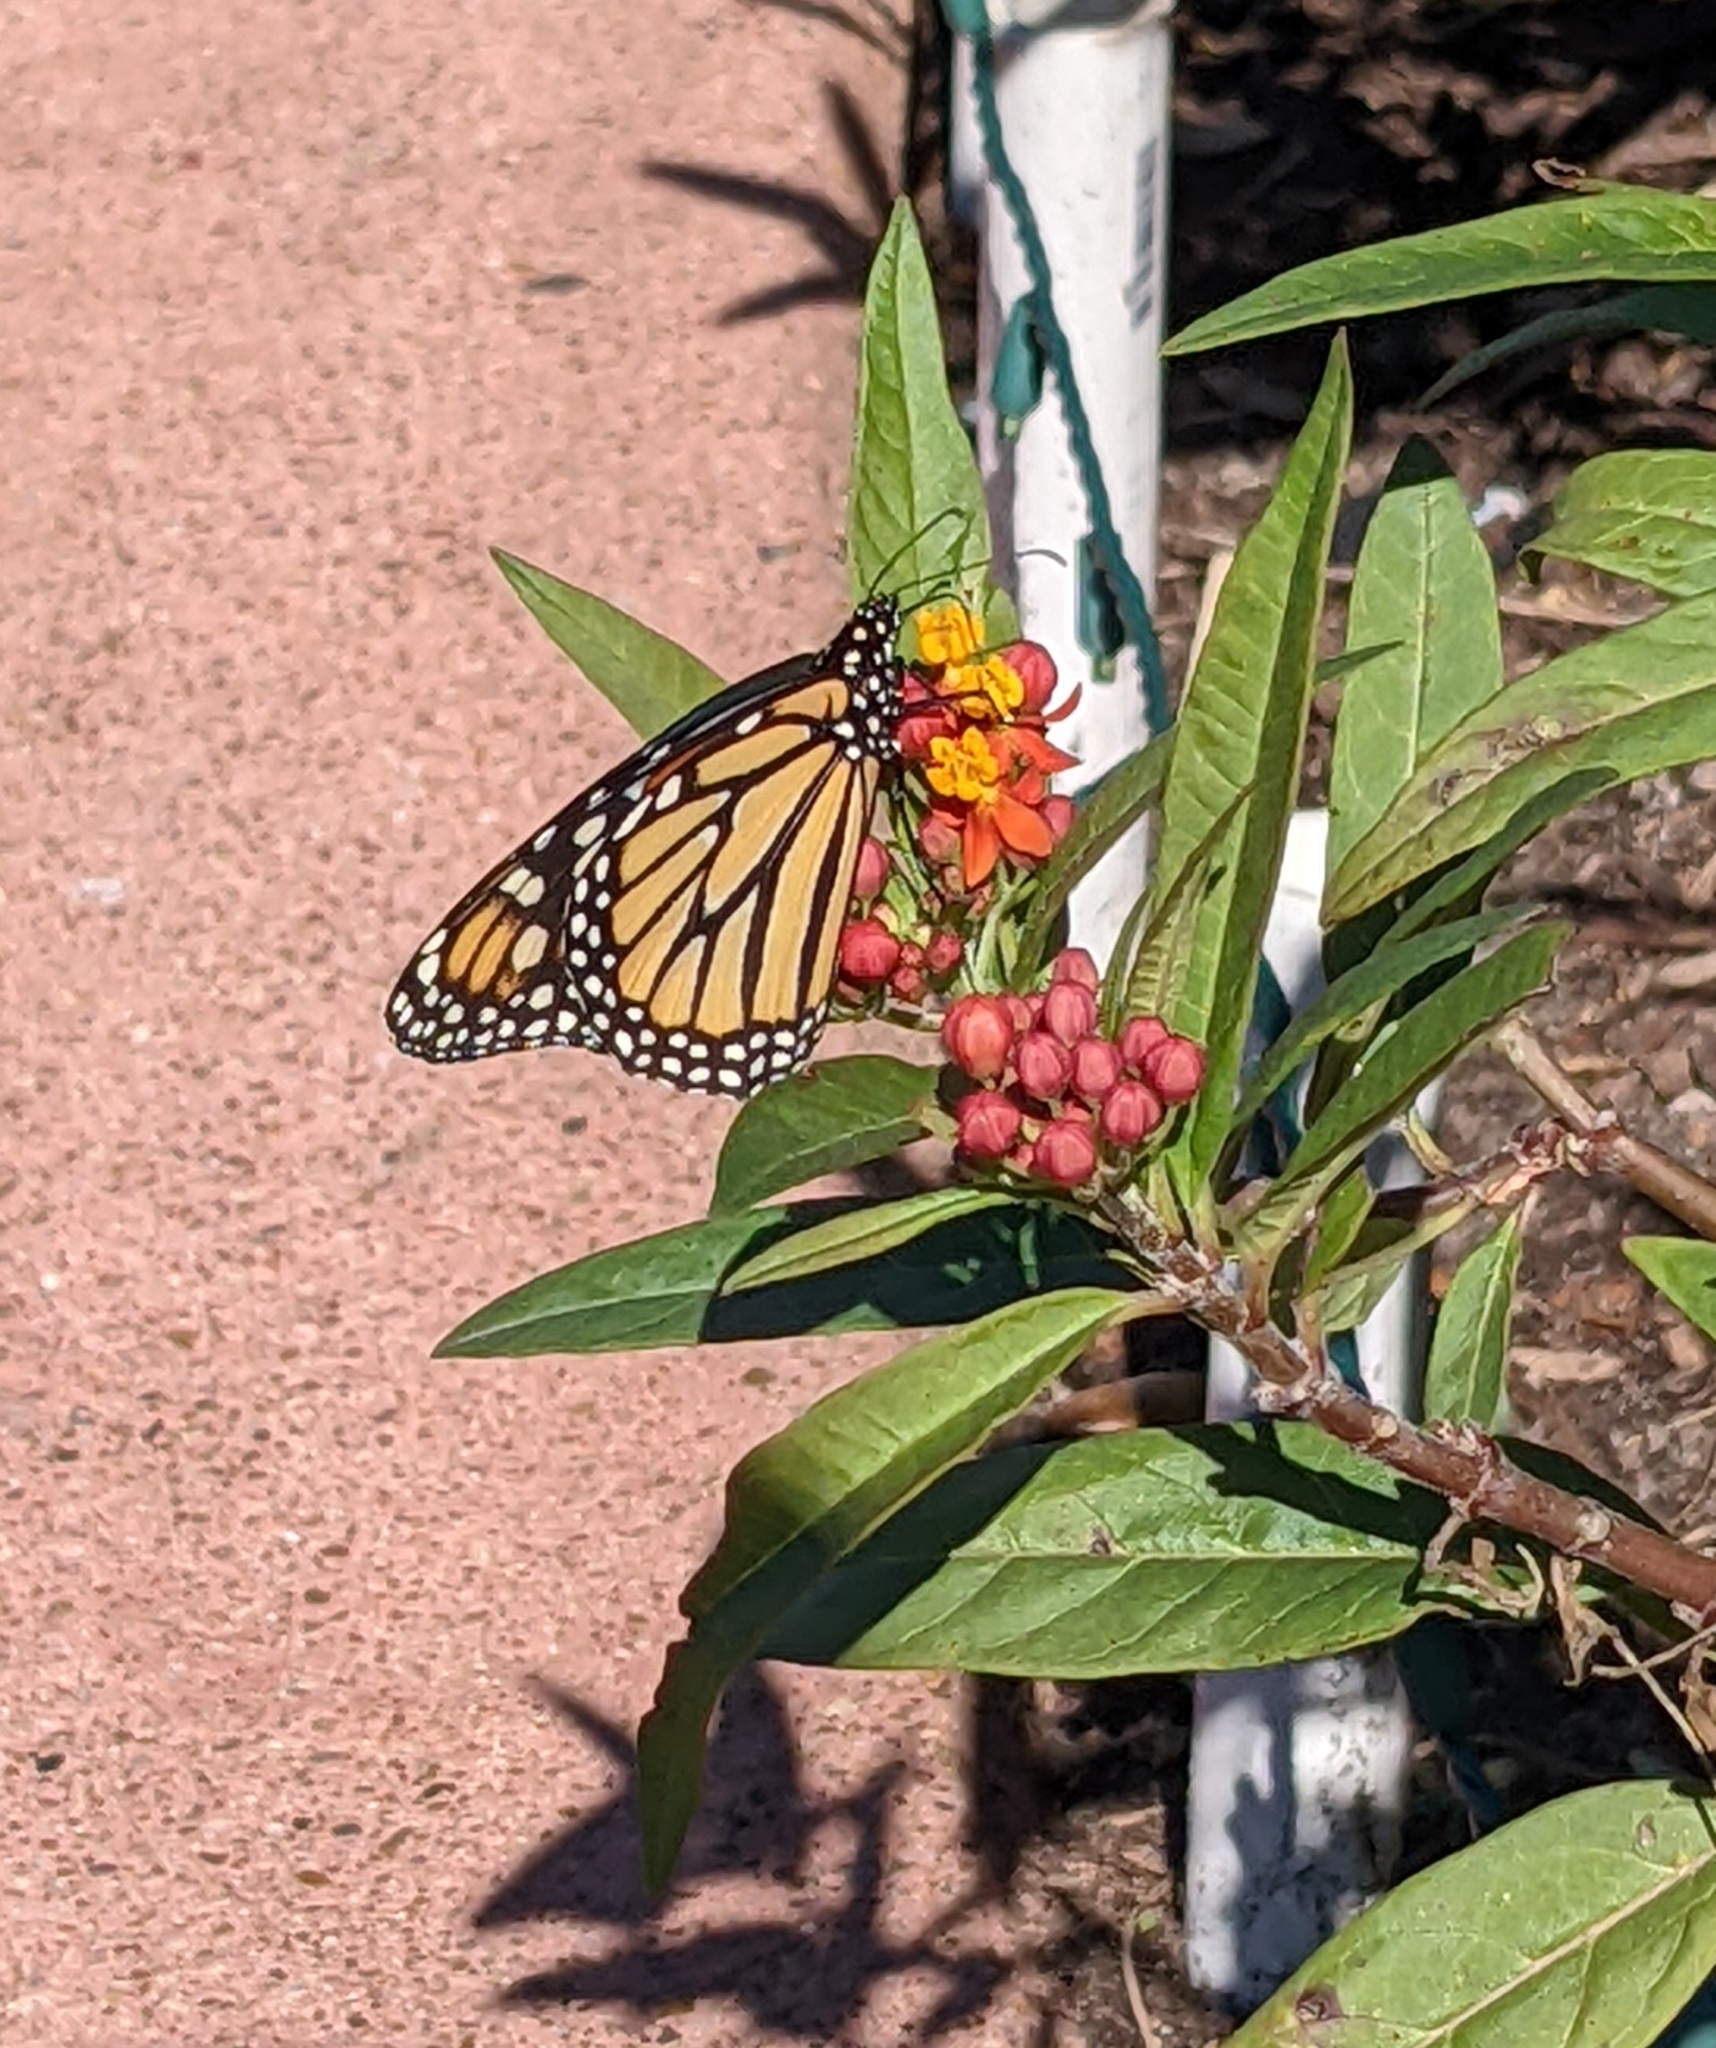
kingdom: Animalia
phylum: Arthropoda
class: Insecta
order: Lepidoptera
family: Nymphalidae
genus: Danaus
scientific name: Danaus plexippus
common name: Monarch
